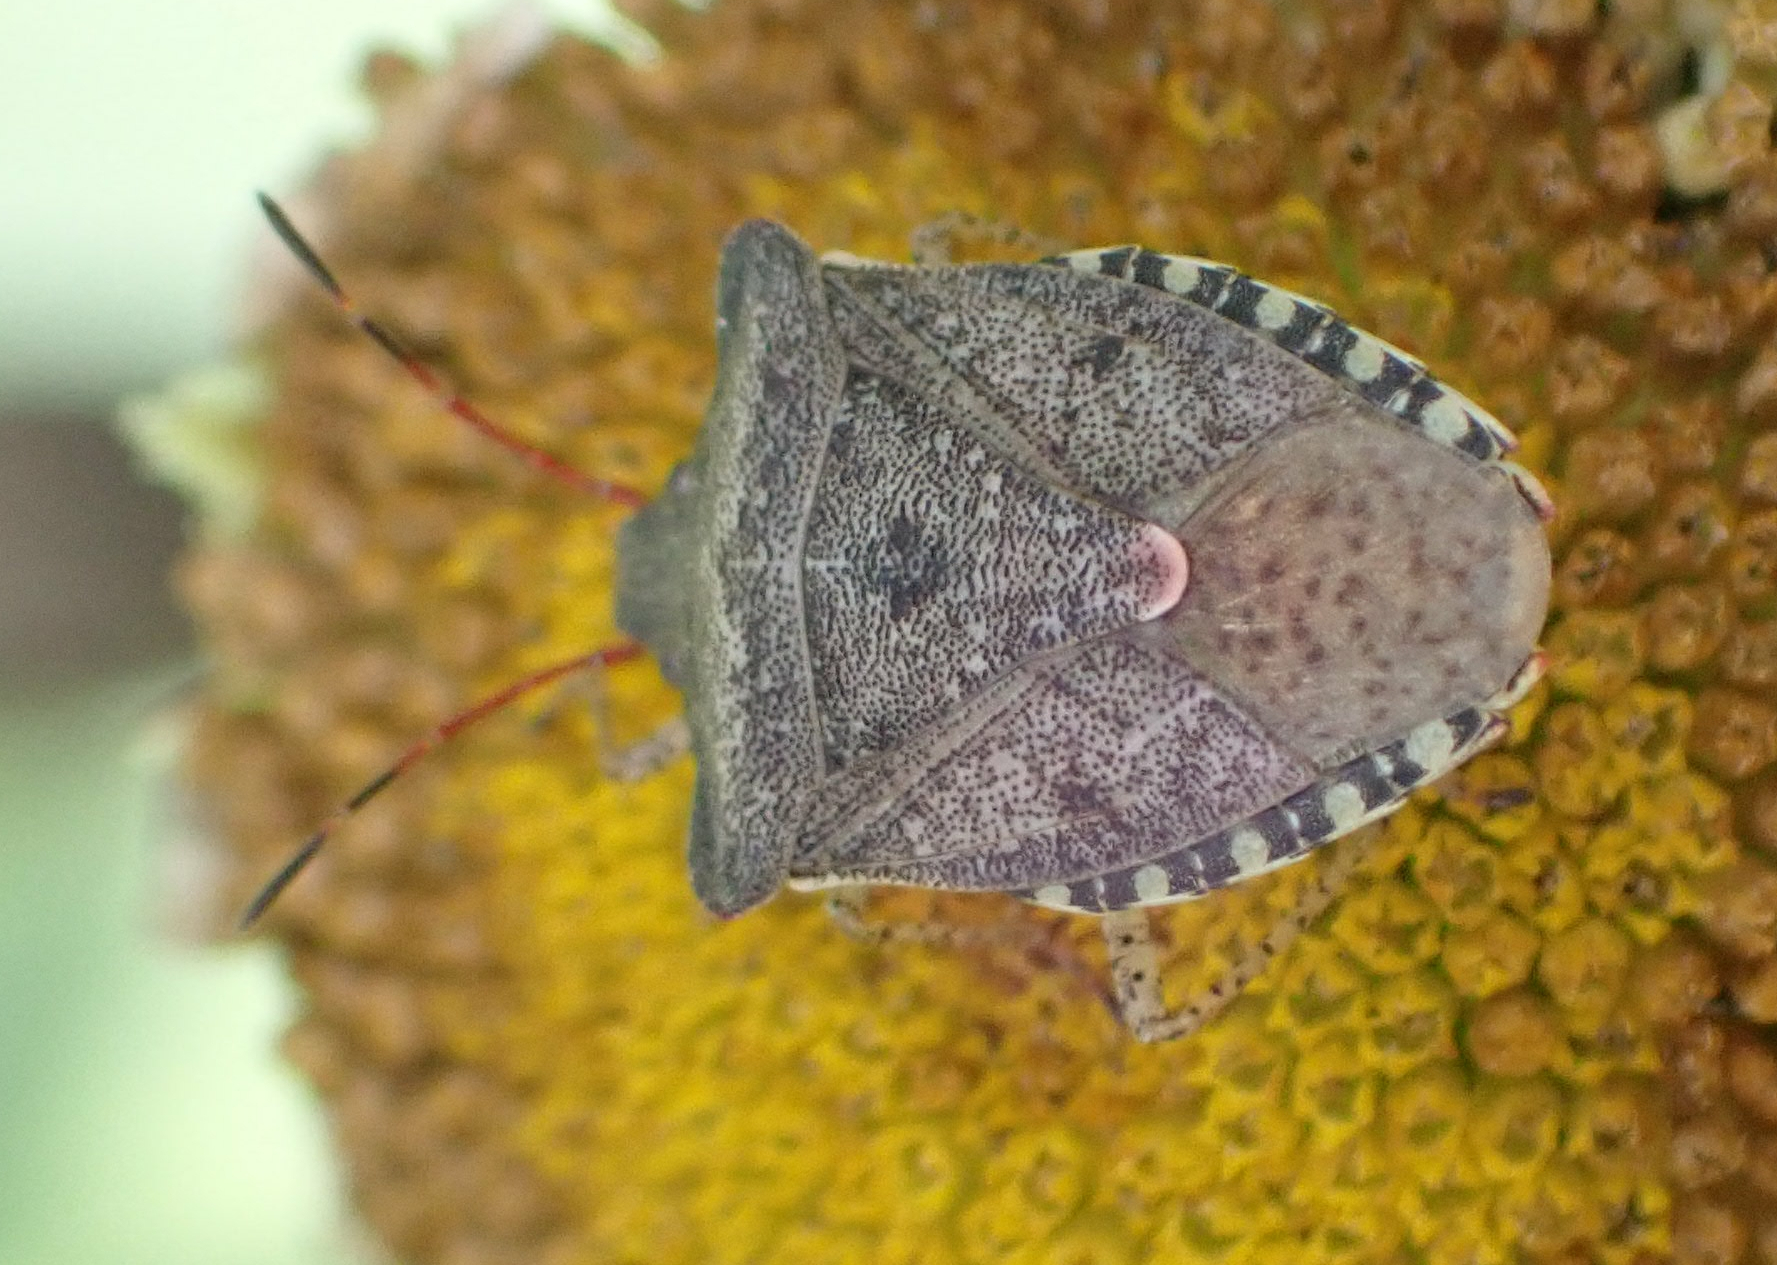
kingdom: Animalia
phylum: Arthropoda
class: Insecta
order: Hemiptera
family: Pentatomidae
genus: Euschistus
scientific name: Euschistus tristigmus
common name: Dusky stink bug
